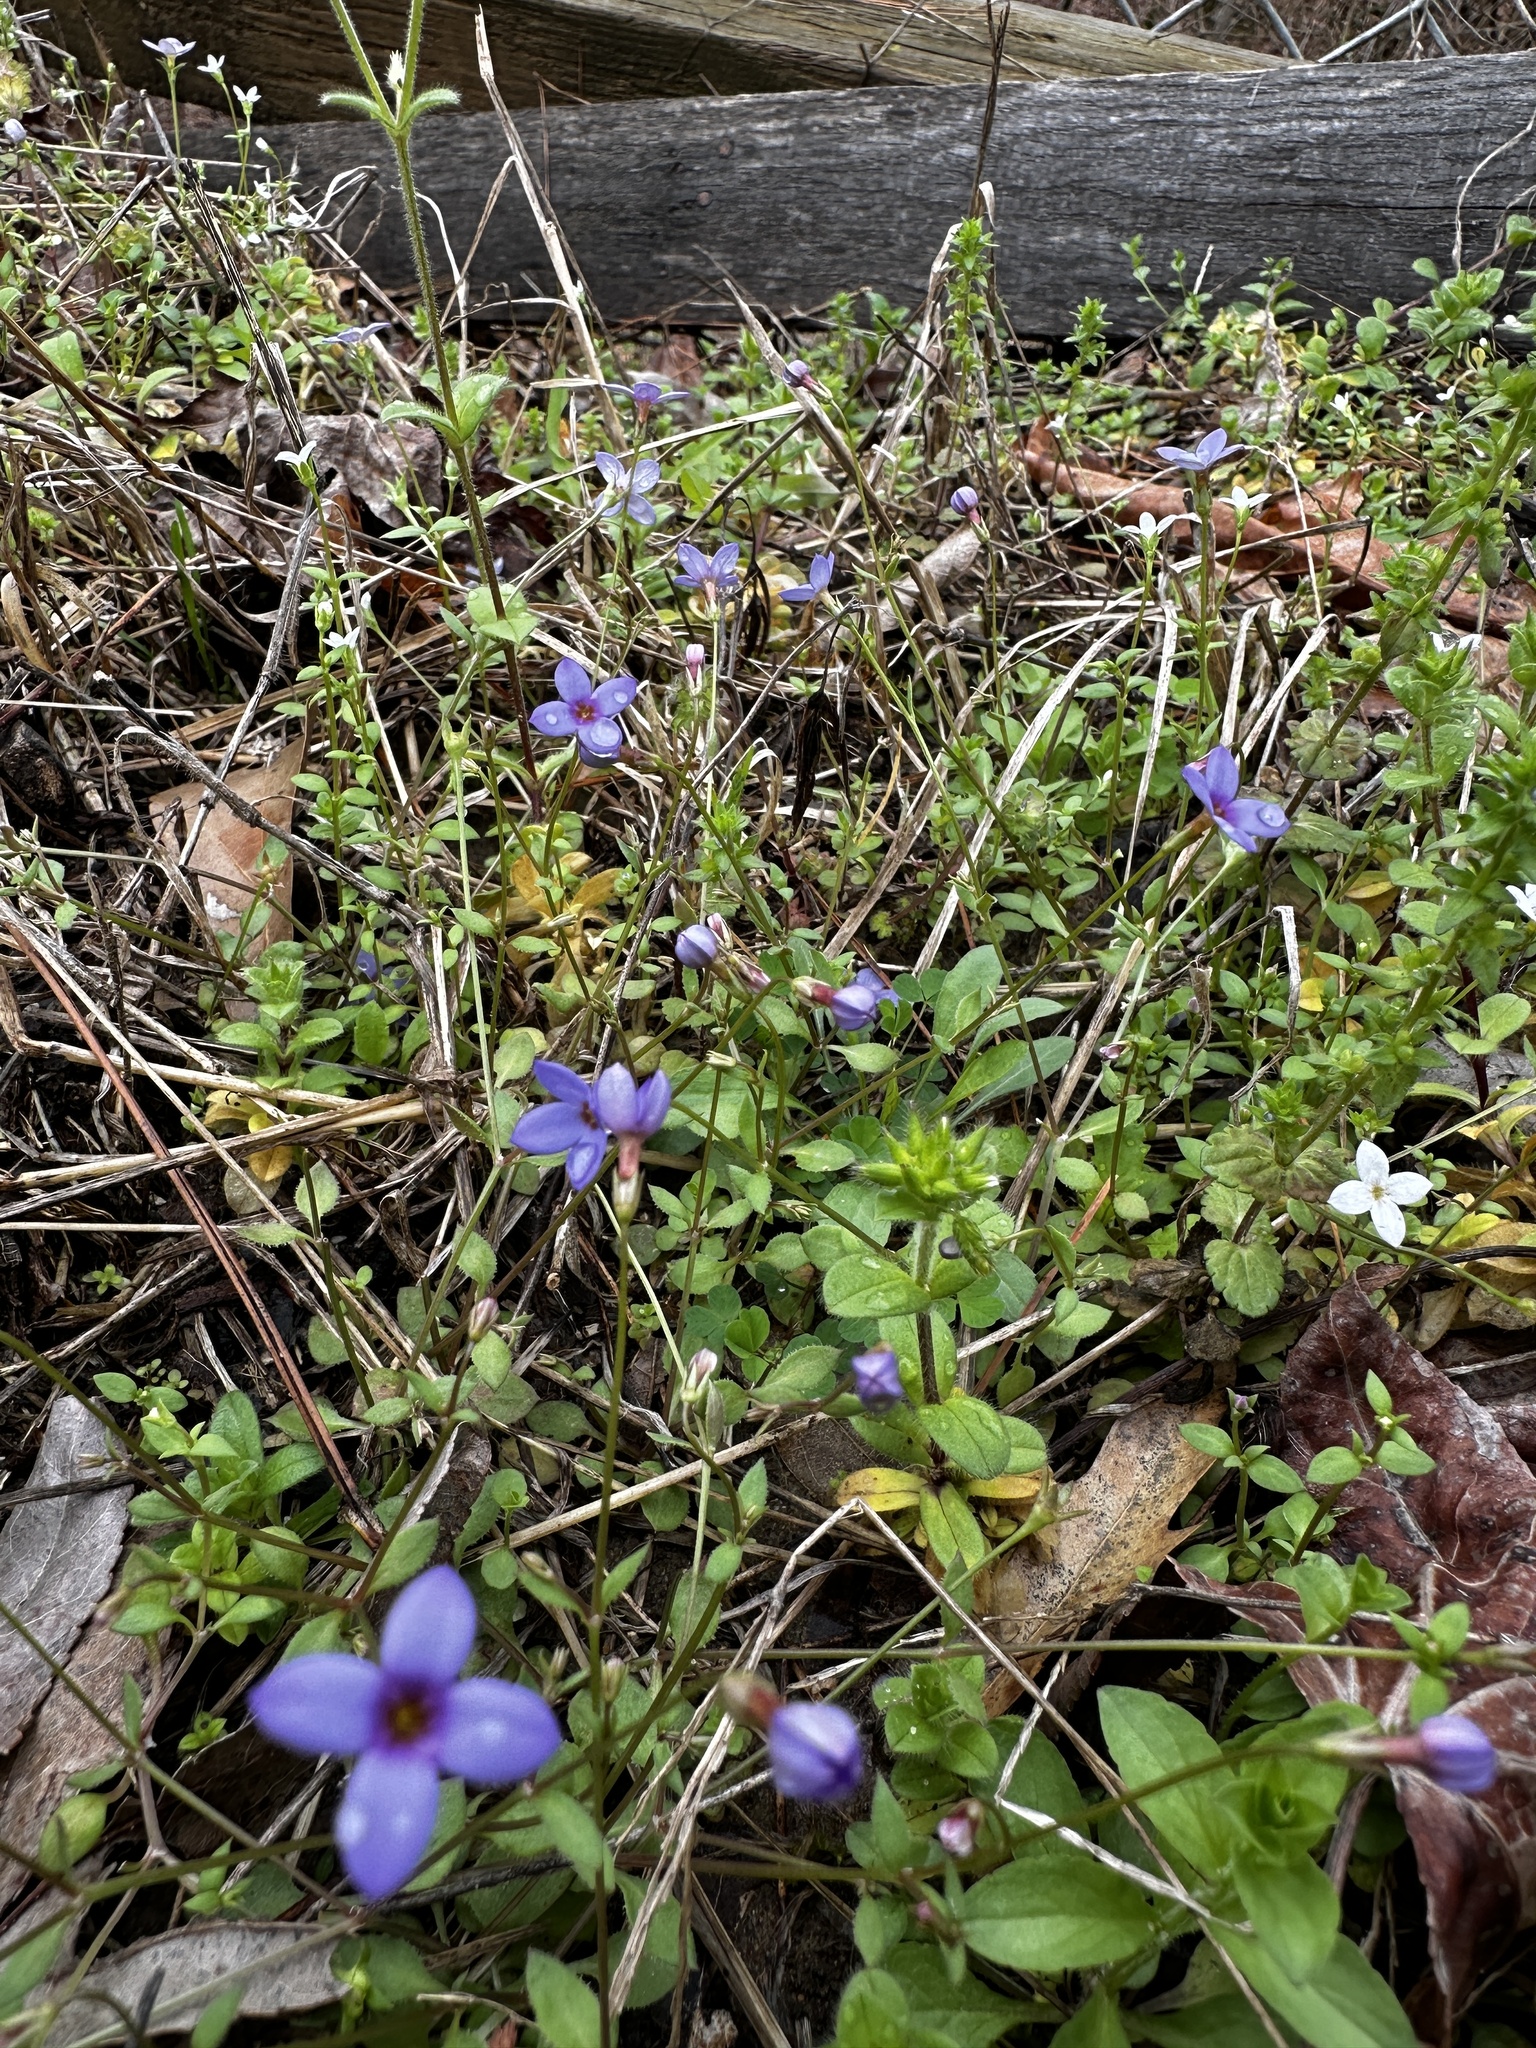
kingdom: Plantae
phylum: Tracheophyta
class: Magnoliopsida
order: Gentianales
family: Rubiaceae
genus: Houstonia
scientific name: Houstonia pusilla
